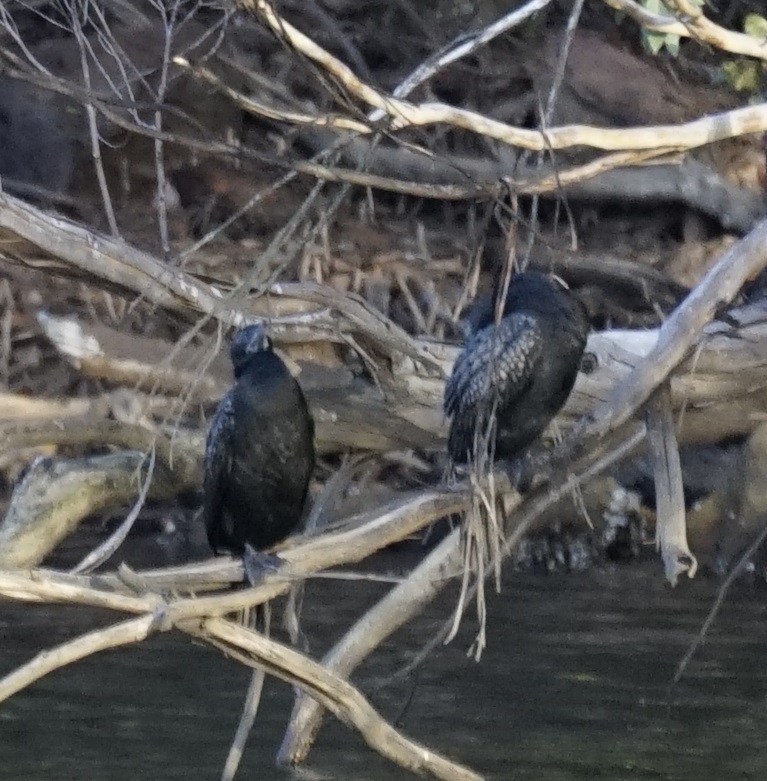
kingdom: Animalia
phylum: Chordata
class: Aves
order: Suliformes
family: Phalacrocoracidae
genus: Phalacrocorax
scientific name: Phalacrocorax sulcirostris
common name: Little black cormorant
